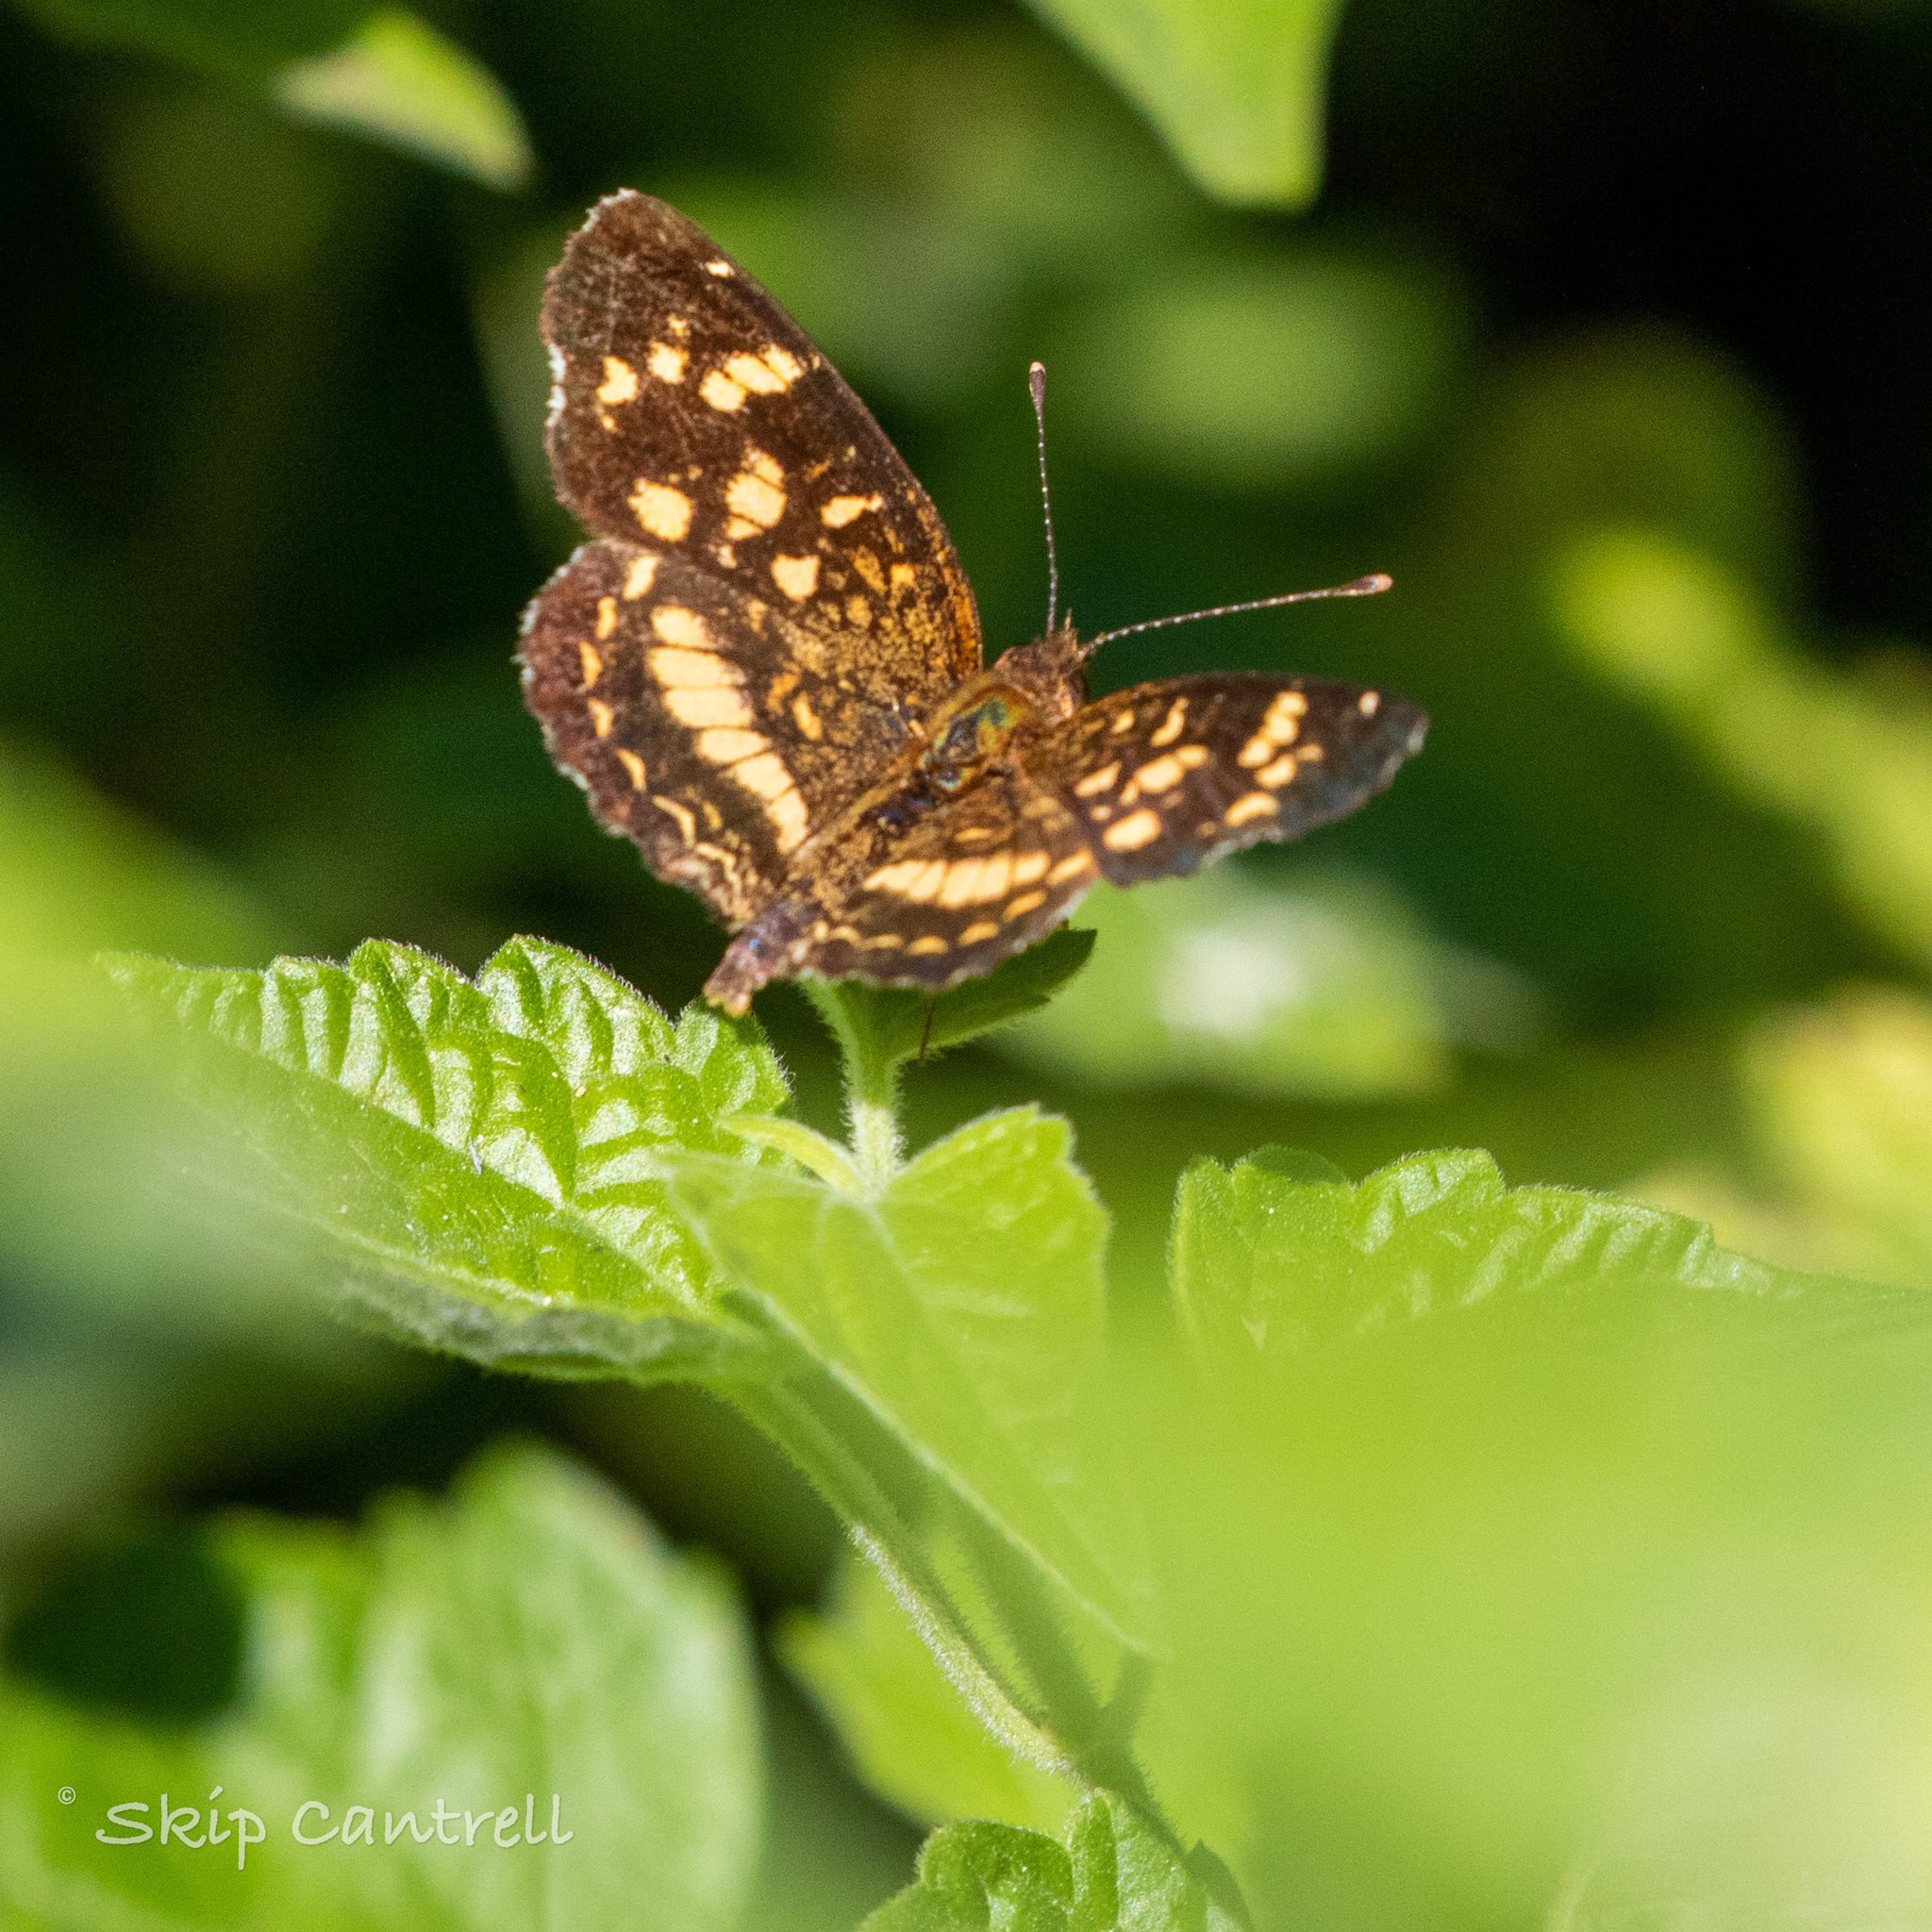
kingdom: Animalia
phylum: Arthropoda
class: Insecta
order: Lepidoptera
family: Nymphalidae
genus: Anthanassa
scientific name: Anthanassa tulcis
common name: Pale-banded crescent
